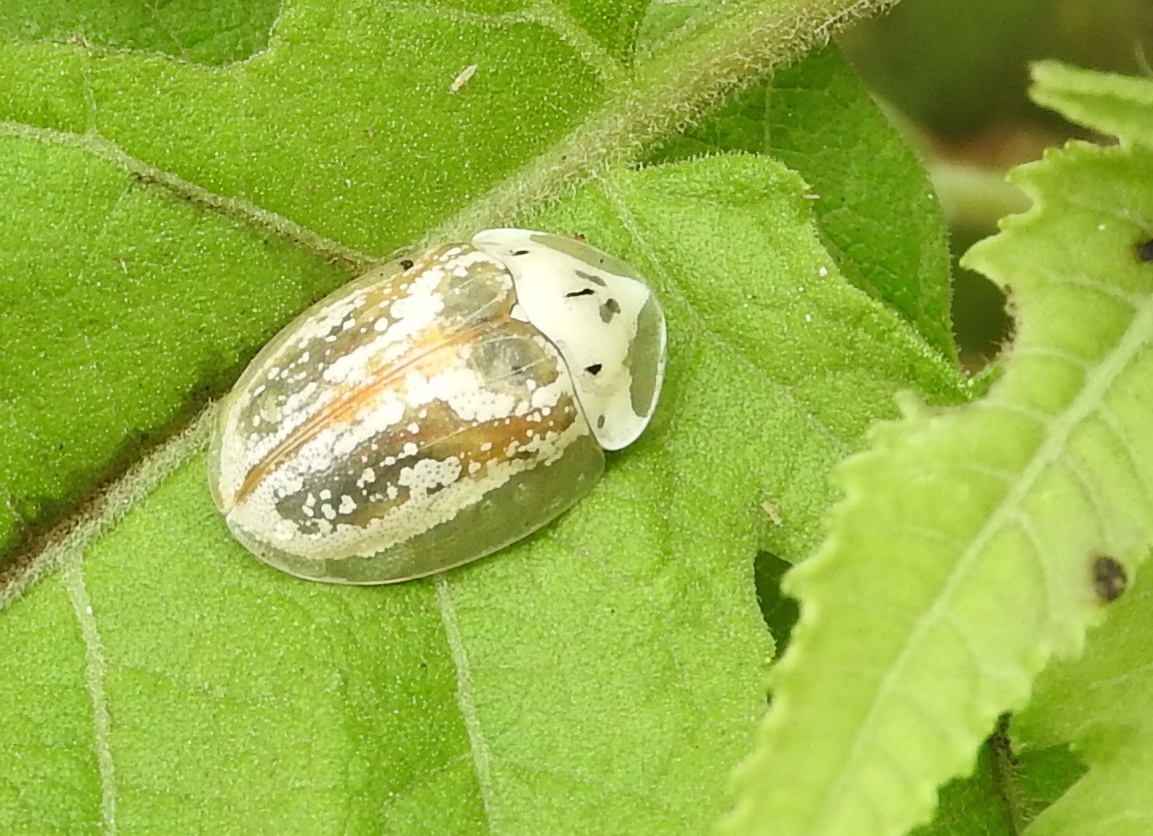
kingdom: Animalia
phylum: Arthropoda
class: Insecta
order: Coleoptera
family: Chrysomelidae
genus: Physonota
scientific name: Physonota arizonae
